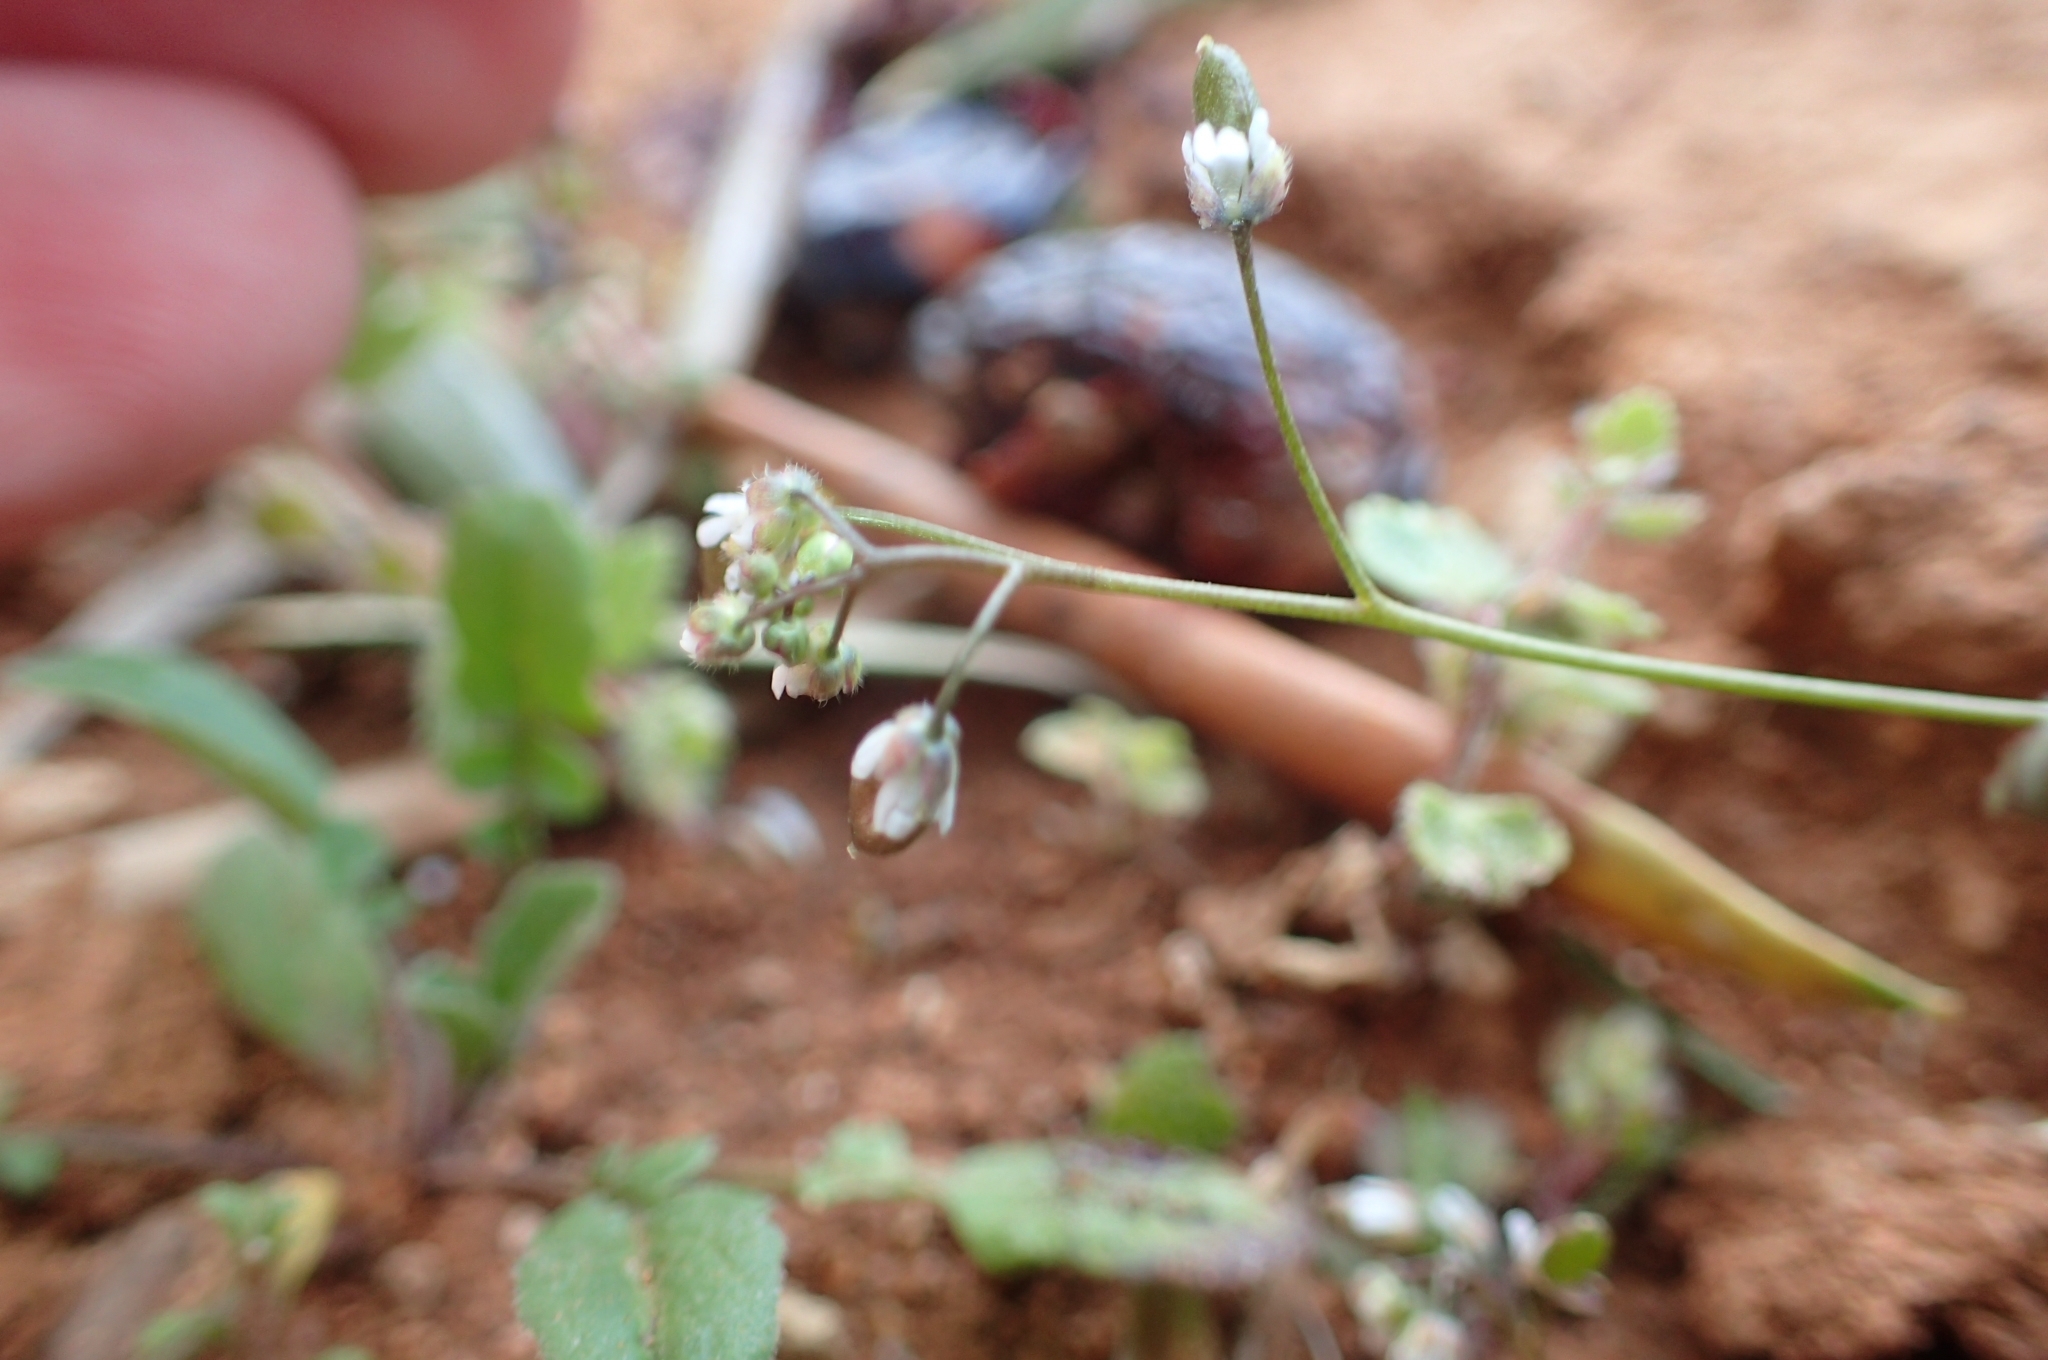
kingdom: Plantae
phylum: Tracheophyta
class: Magnoliopsida
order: Brassicales
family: Brassicaceae
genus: Draba
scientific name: Draba verna
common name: Spring draba
